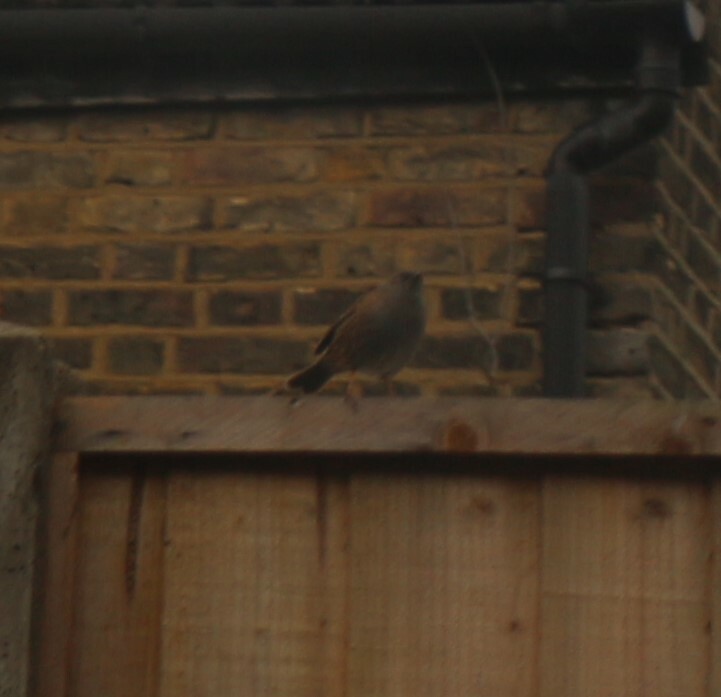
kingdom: Animalia
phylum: Chordata
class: Aves
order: Passeriformes
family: Prunellidae
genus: Prunella
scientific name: Prunella modularis
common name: Dunnock
